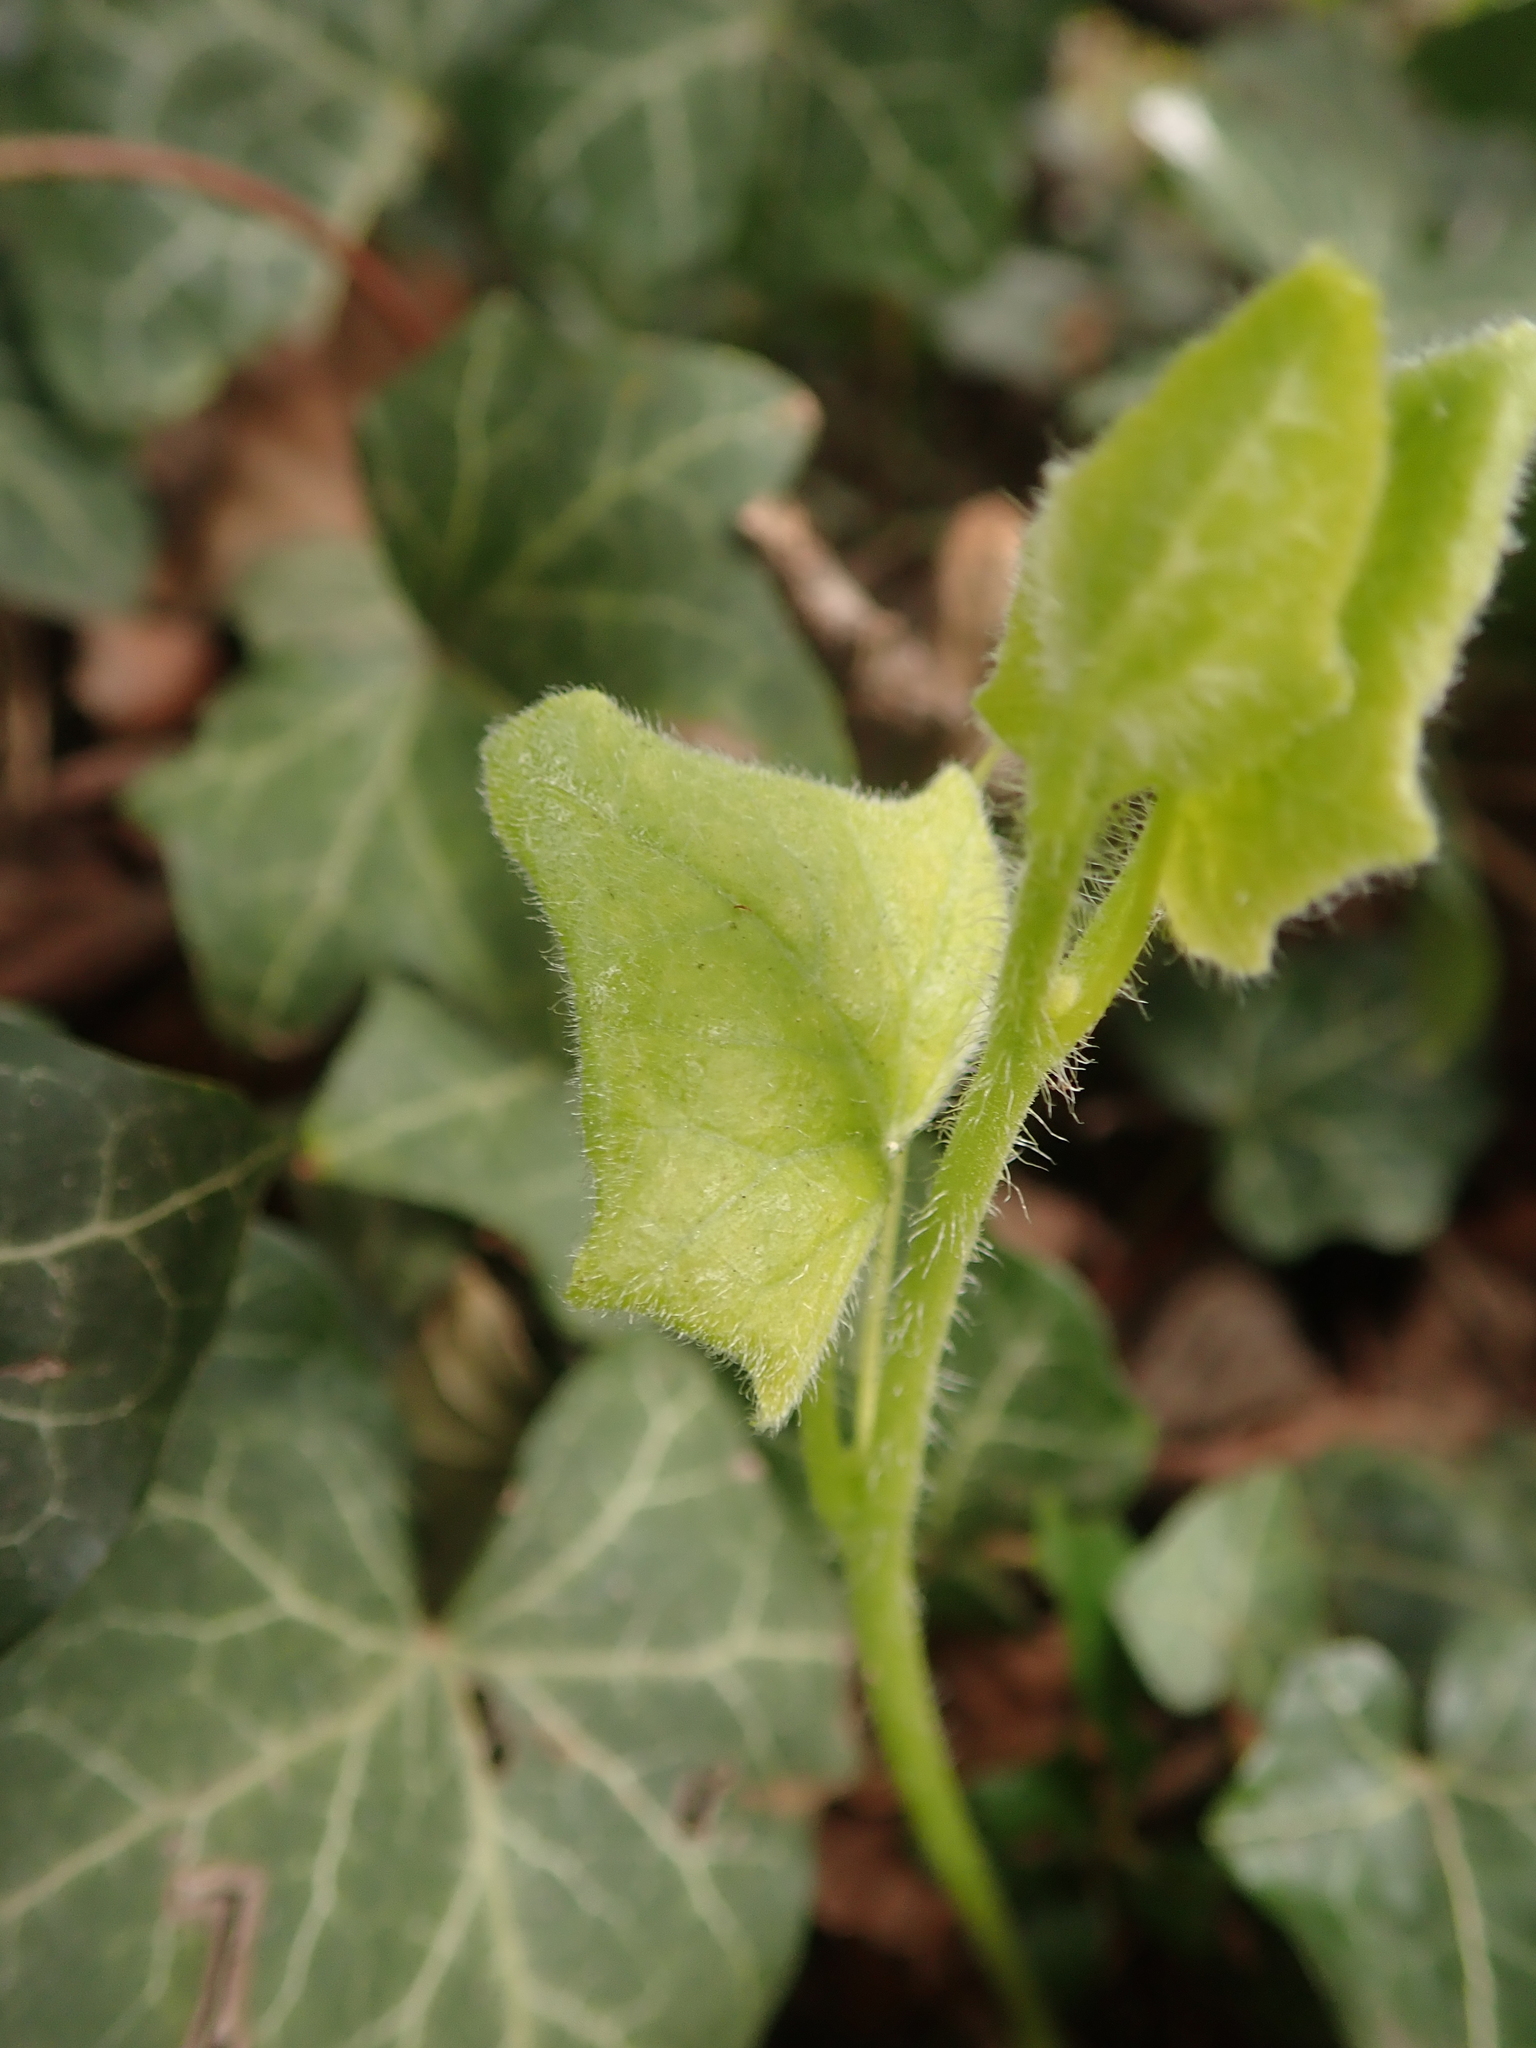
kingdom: Plantae
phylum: Tracheophyta
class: Magnoliopsida
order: Cucurbitales
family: Cucurbitaceae
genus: Bryonia
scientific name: Bryonia cretica
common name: Cretan bryony
